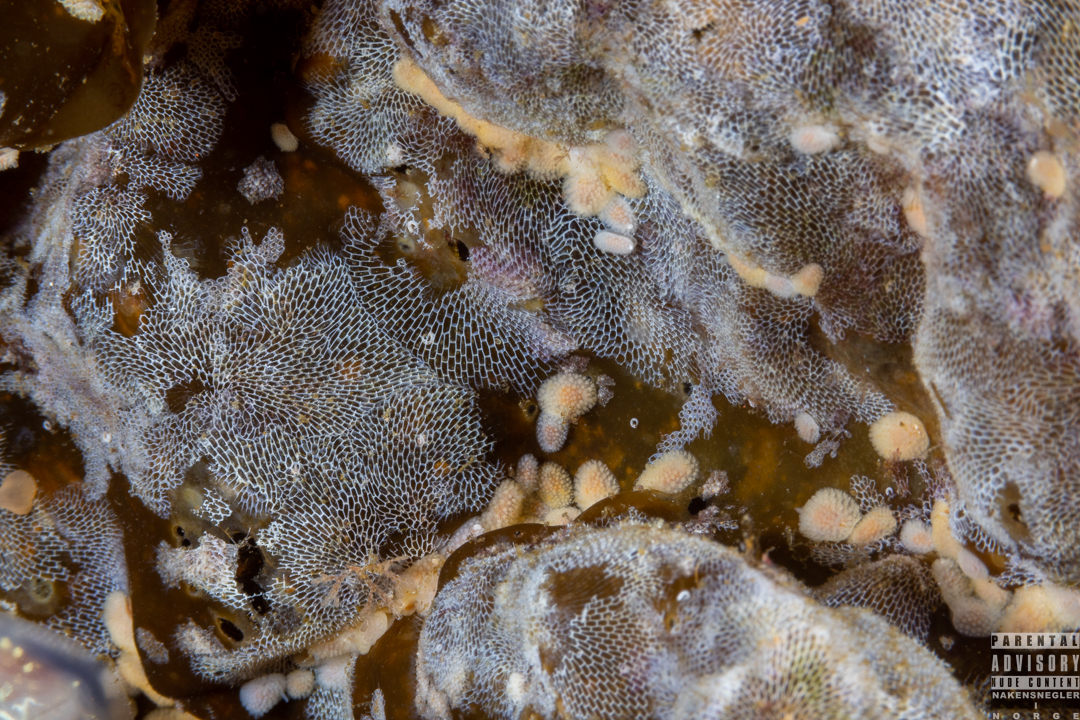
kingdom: Animalia
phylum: Mollusca
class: Gastropoda
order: Nudibranchia
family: Onchidorididae
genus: Onchidoris
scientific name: Onchidoris muricata
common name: Rough doris
